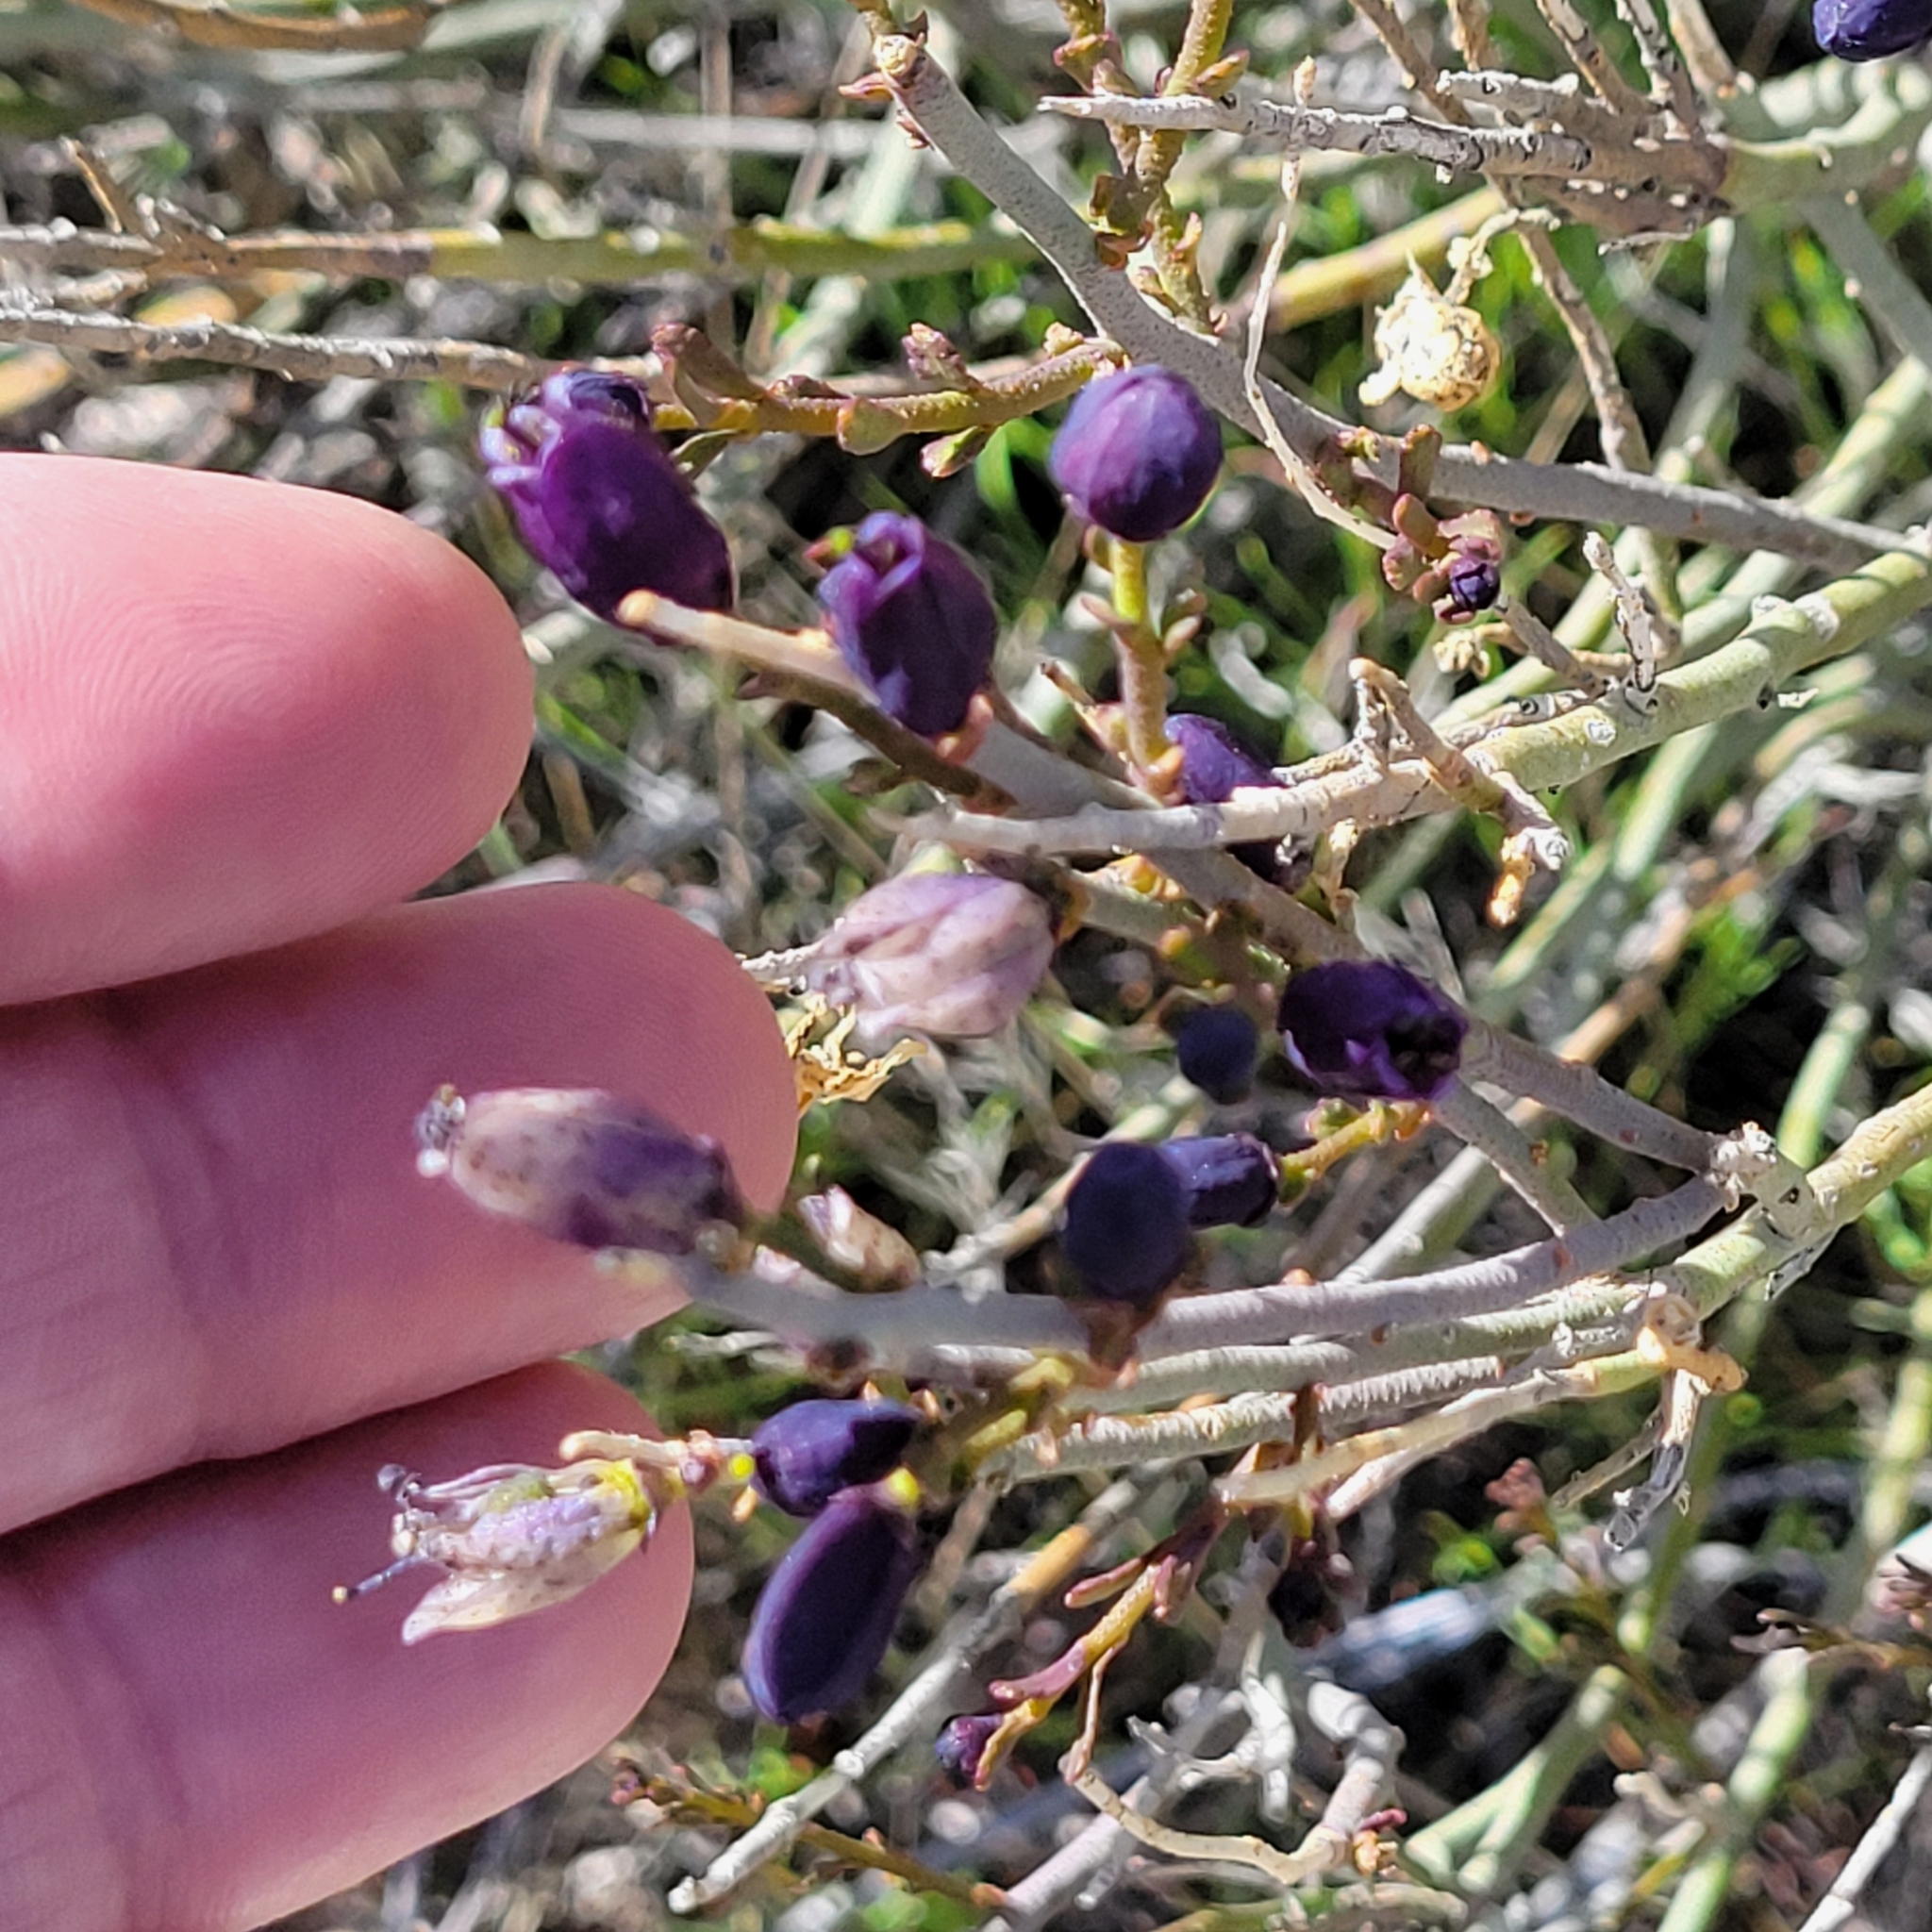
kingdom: Plantae
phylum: Tracheophyta
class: Magnoliopsida
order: Sapindales
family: Rutaceae
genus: Thamnosma
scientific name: Thamnosma montana
